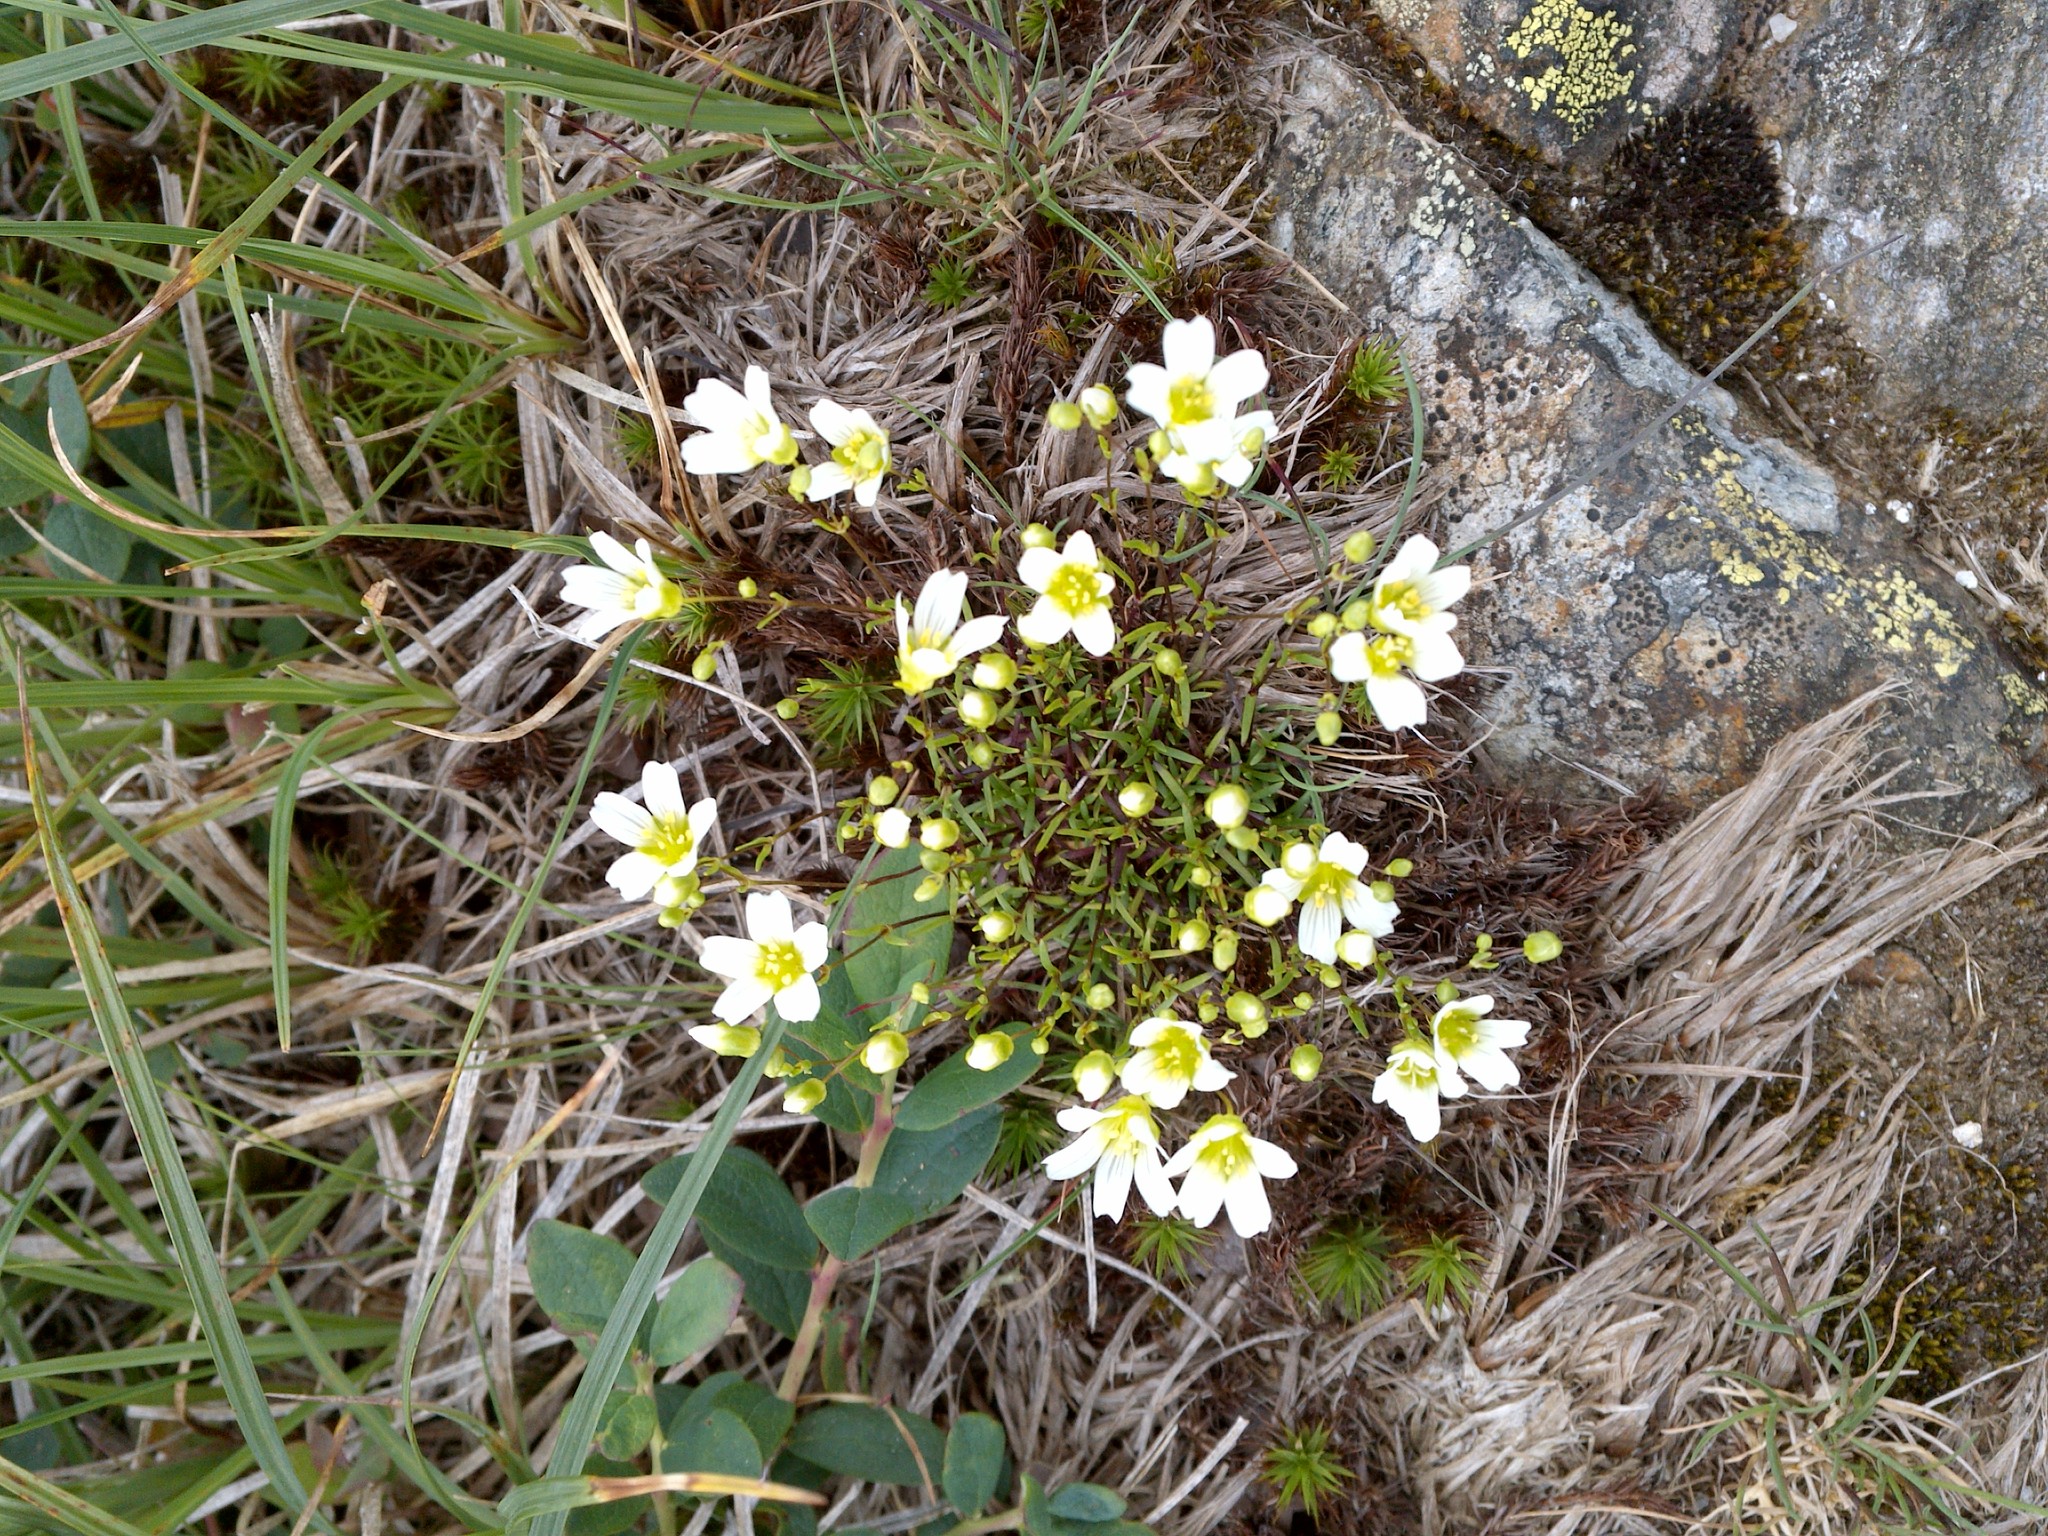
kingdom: Plantae
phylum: Tracheophyta
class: Magnoliopsida
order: Caryophyllales
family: Caryophyllaceae
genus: Geocarpon
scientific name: Geocarpon groenlandicum
